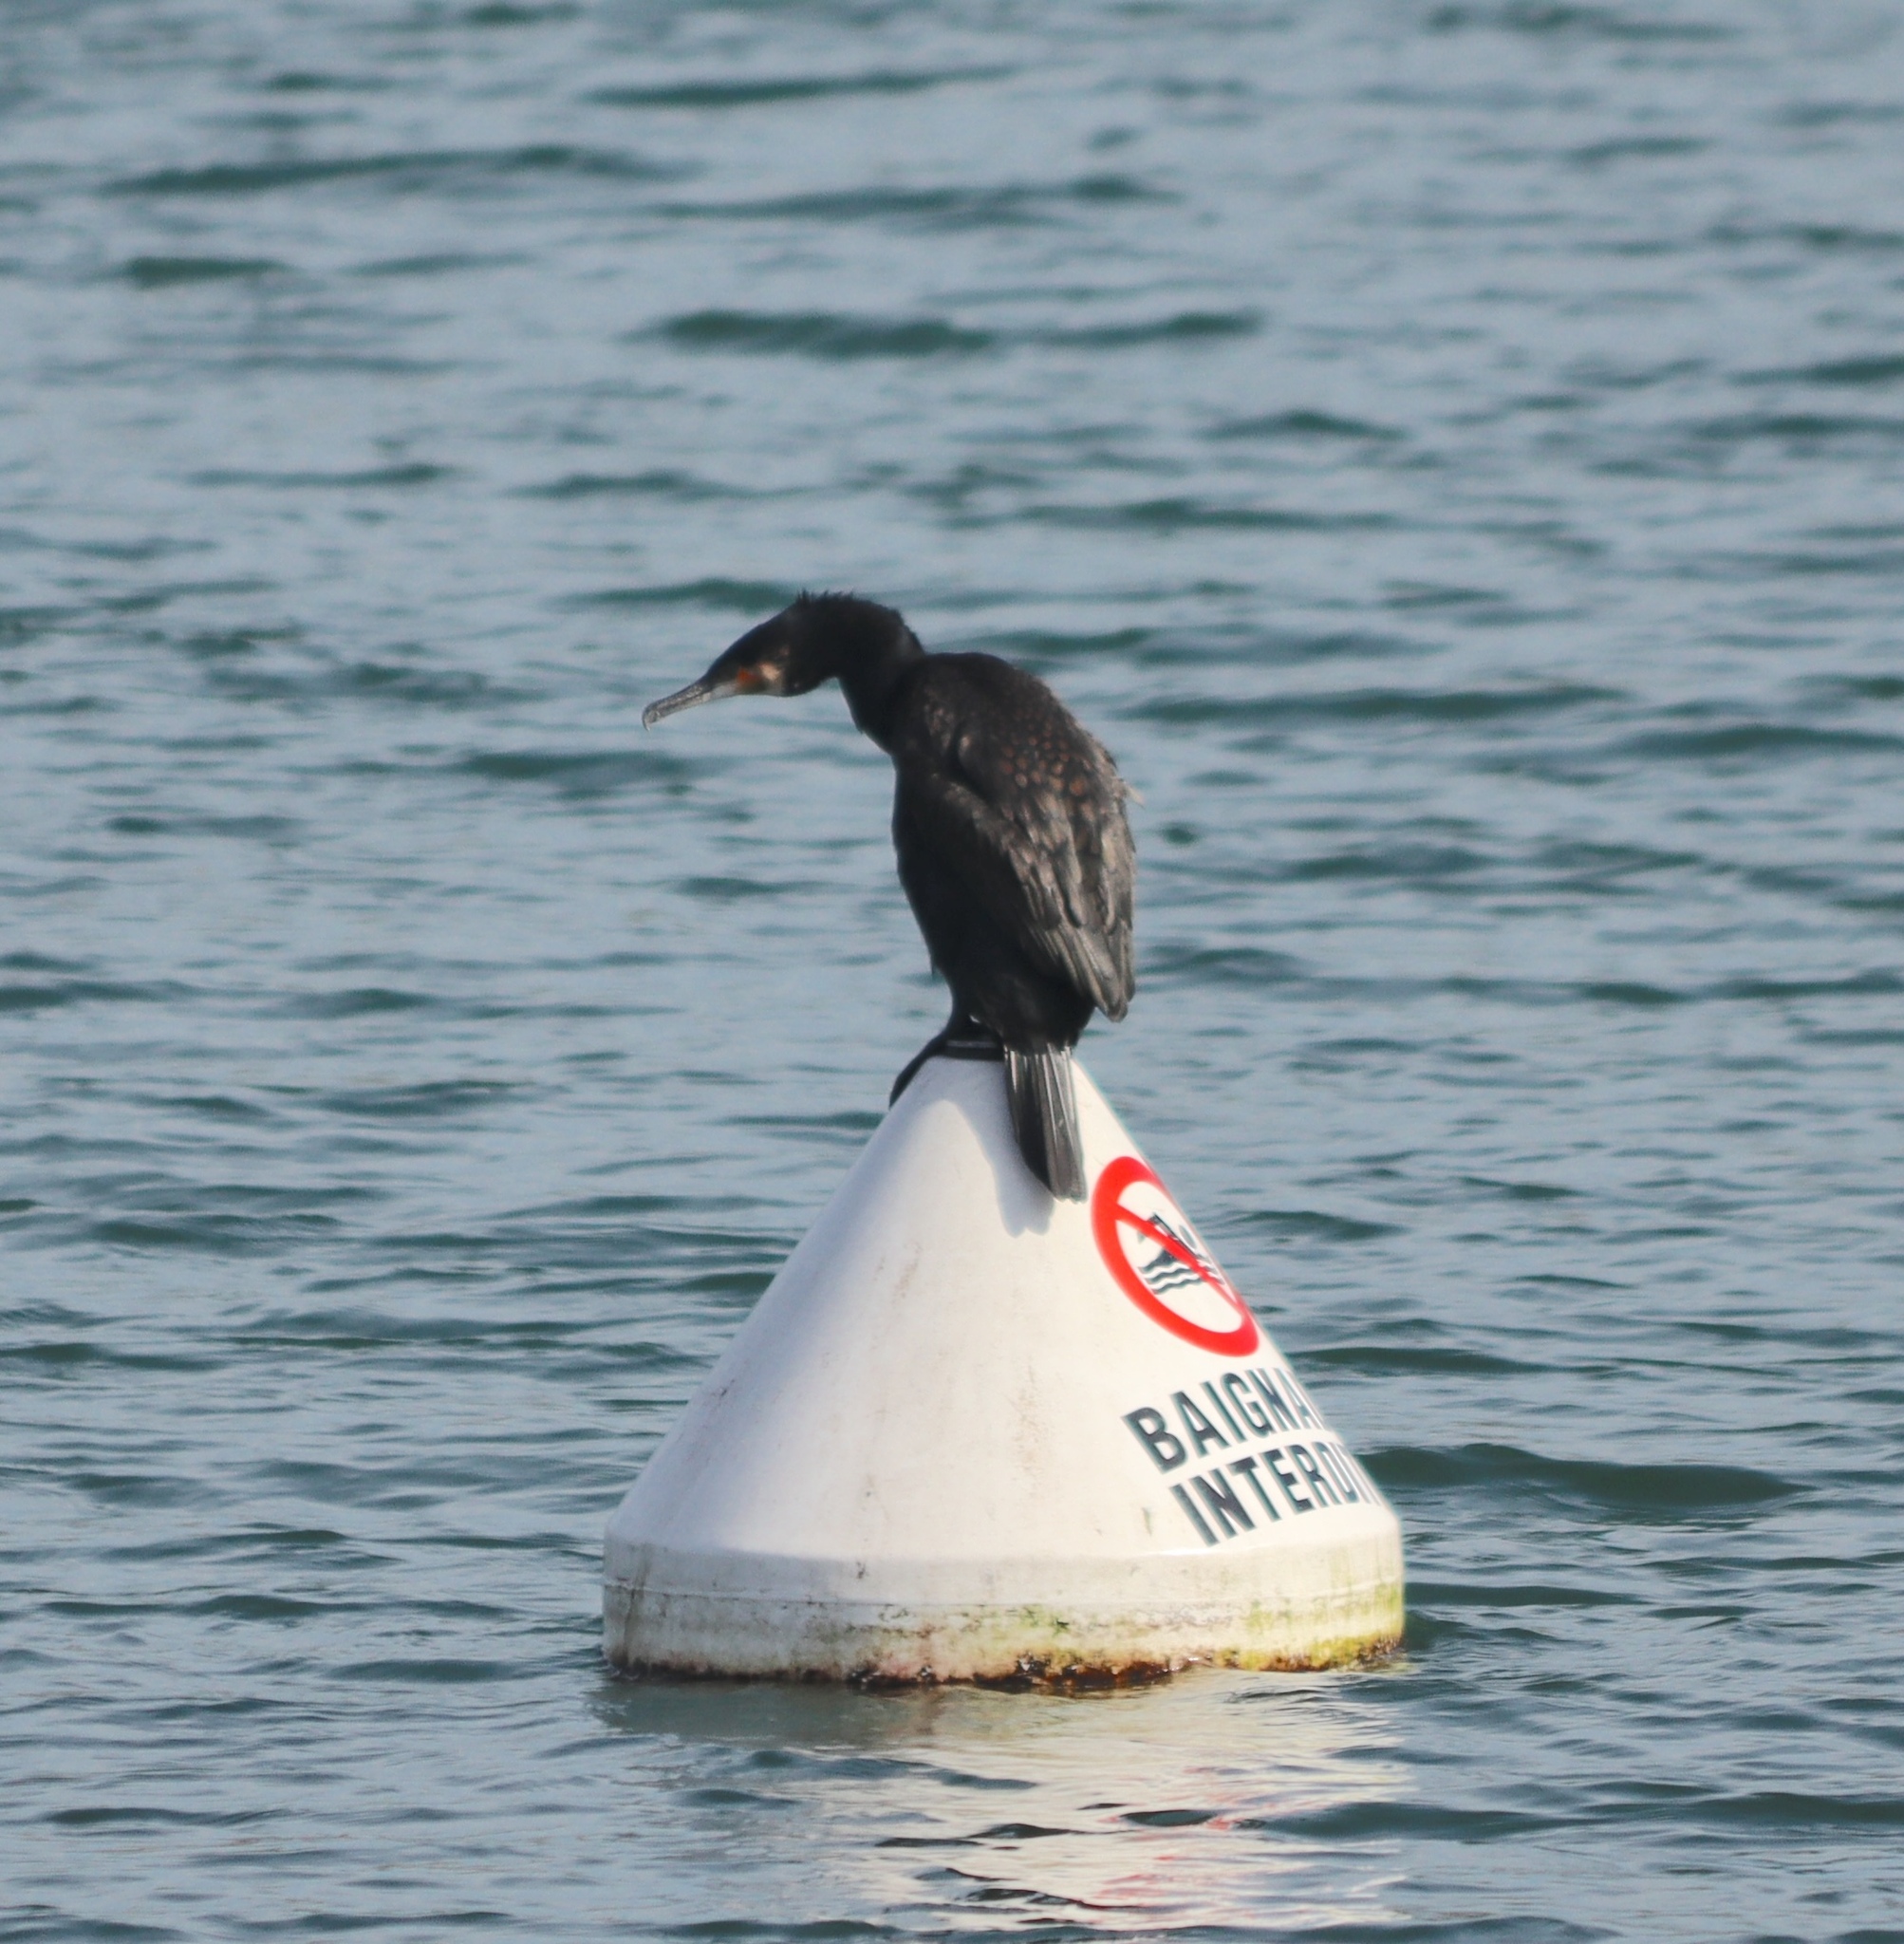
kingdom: Animalia
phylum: Chordata
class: Aves
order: Suliformes
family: Phalacrocoracidae
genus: Phalacrocorax
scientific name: Phalacrocorax carbo
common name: Great cormorant
